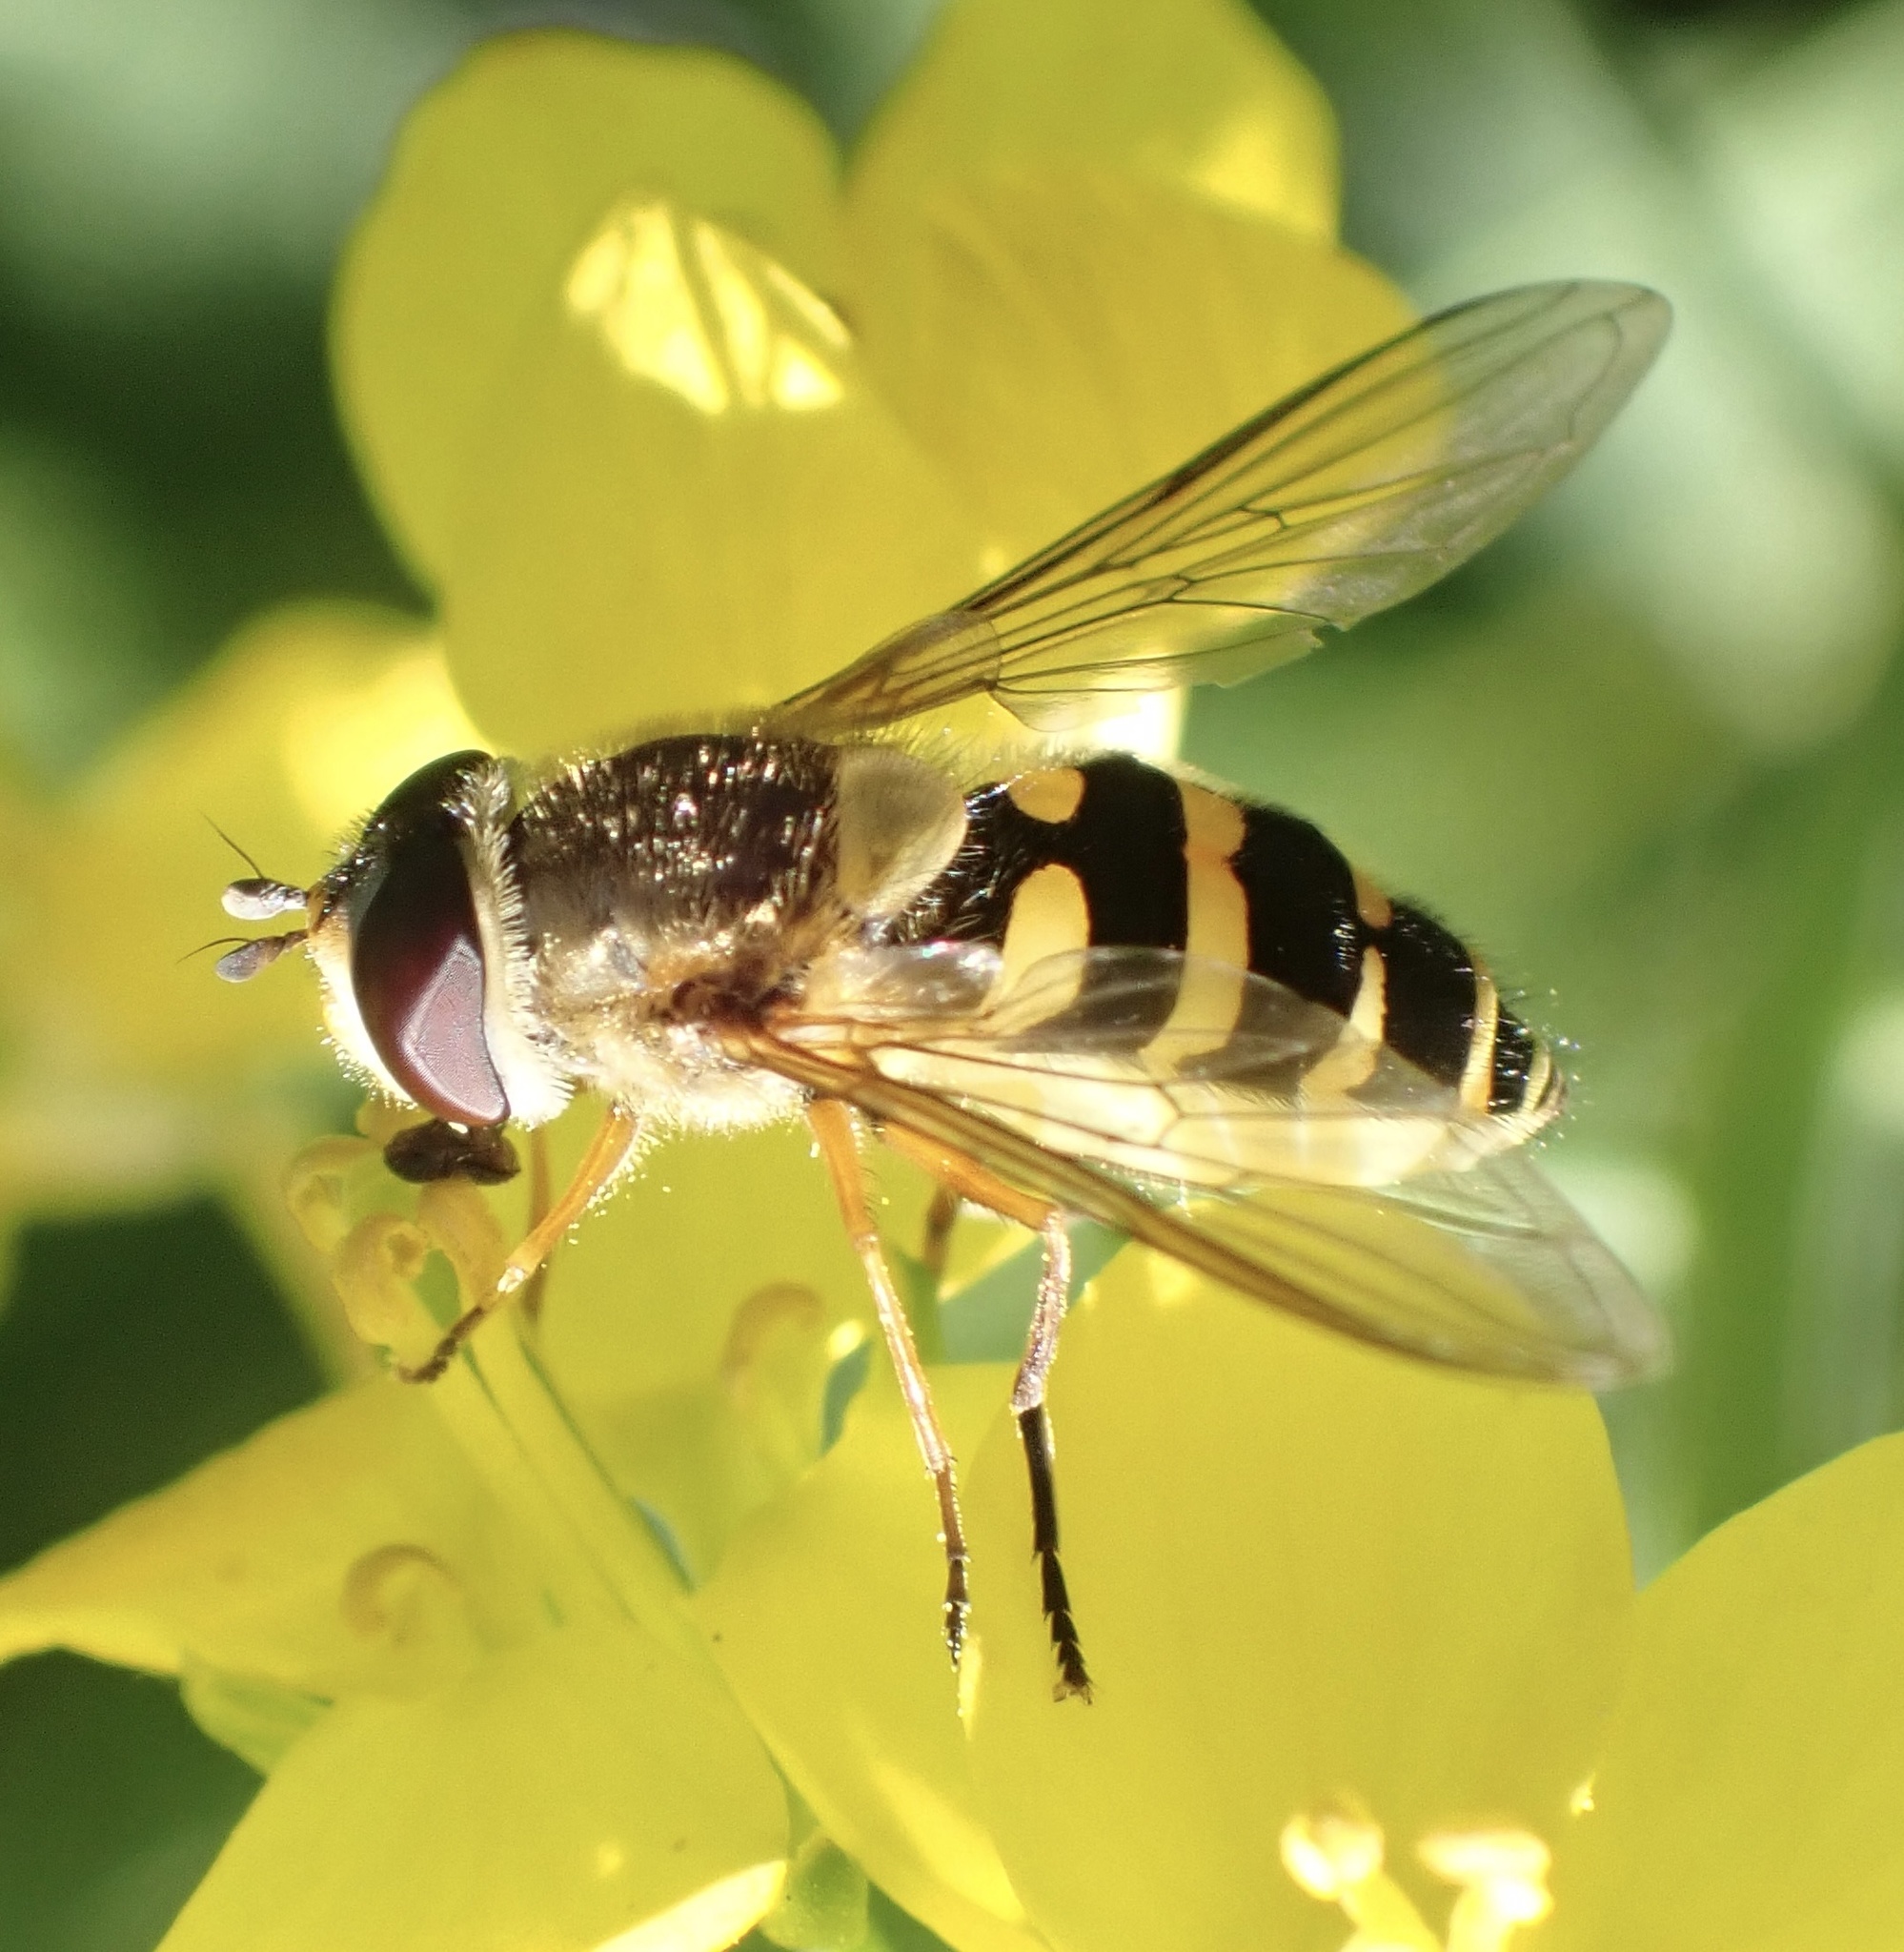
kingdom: Animalia
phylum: Arthropoda
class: Insecta
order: Diptera
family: Syrphidae
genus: Syrphus
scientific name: Syrphus ribesii
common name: Common flower fly
